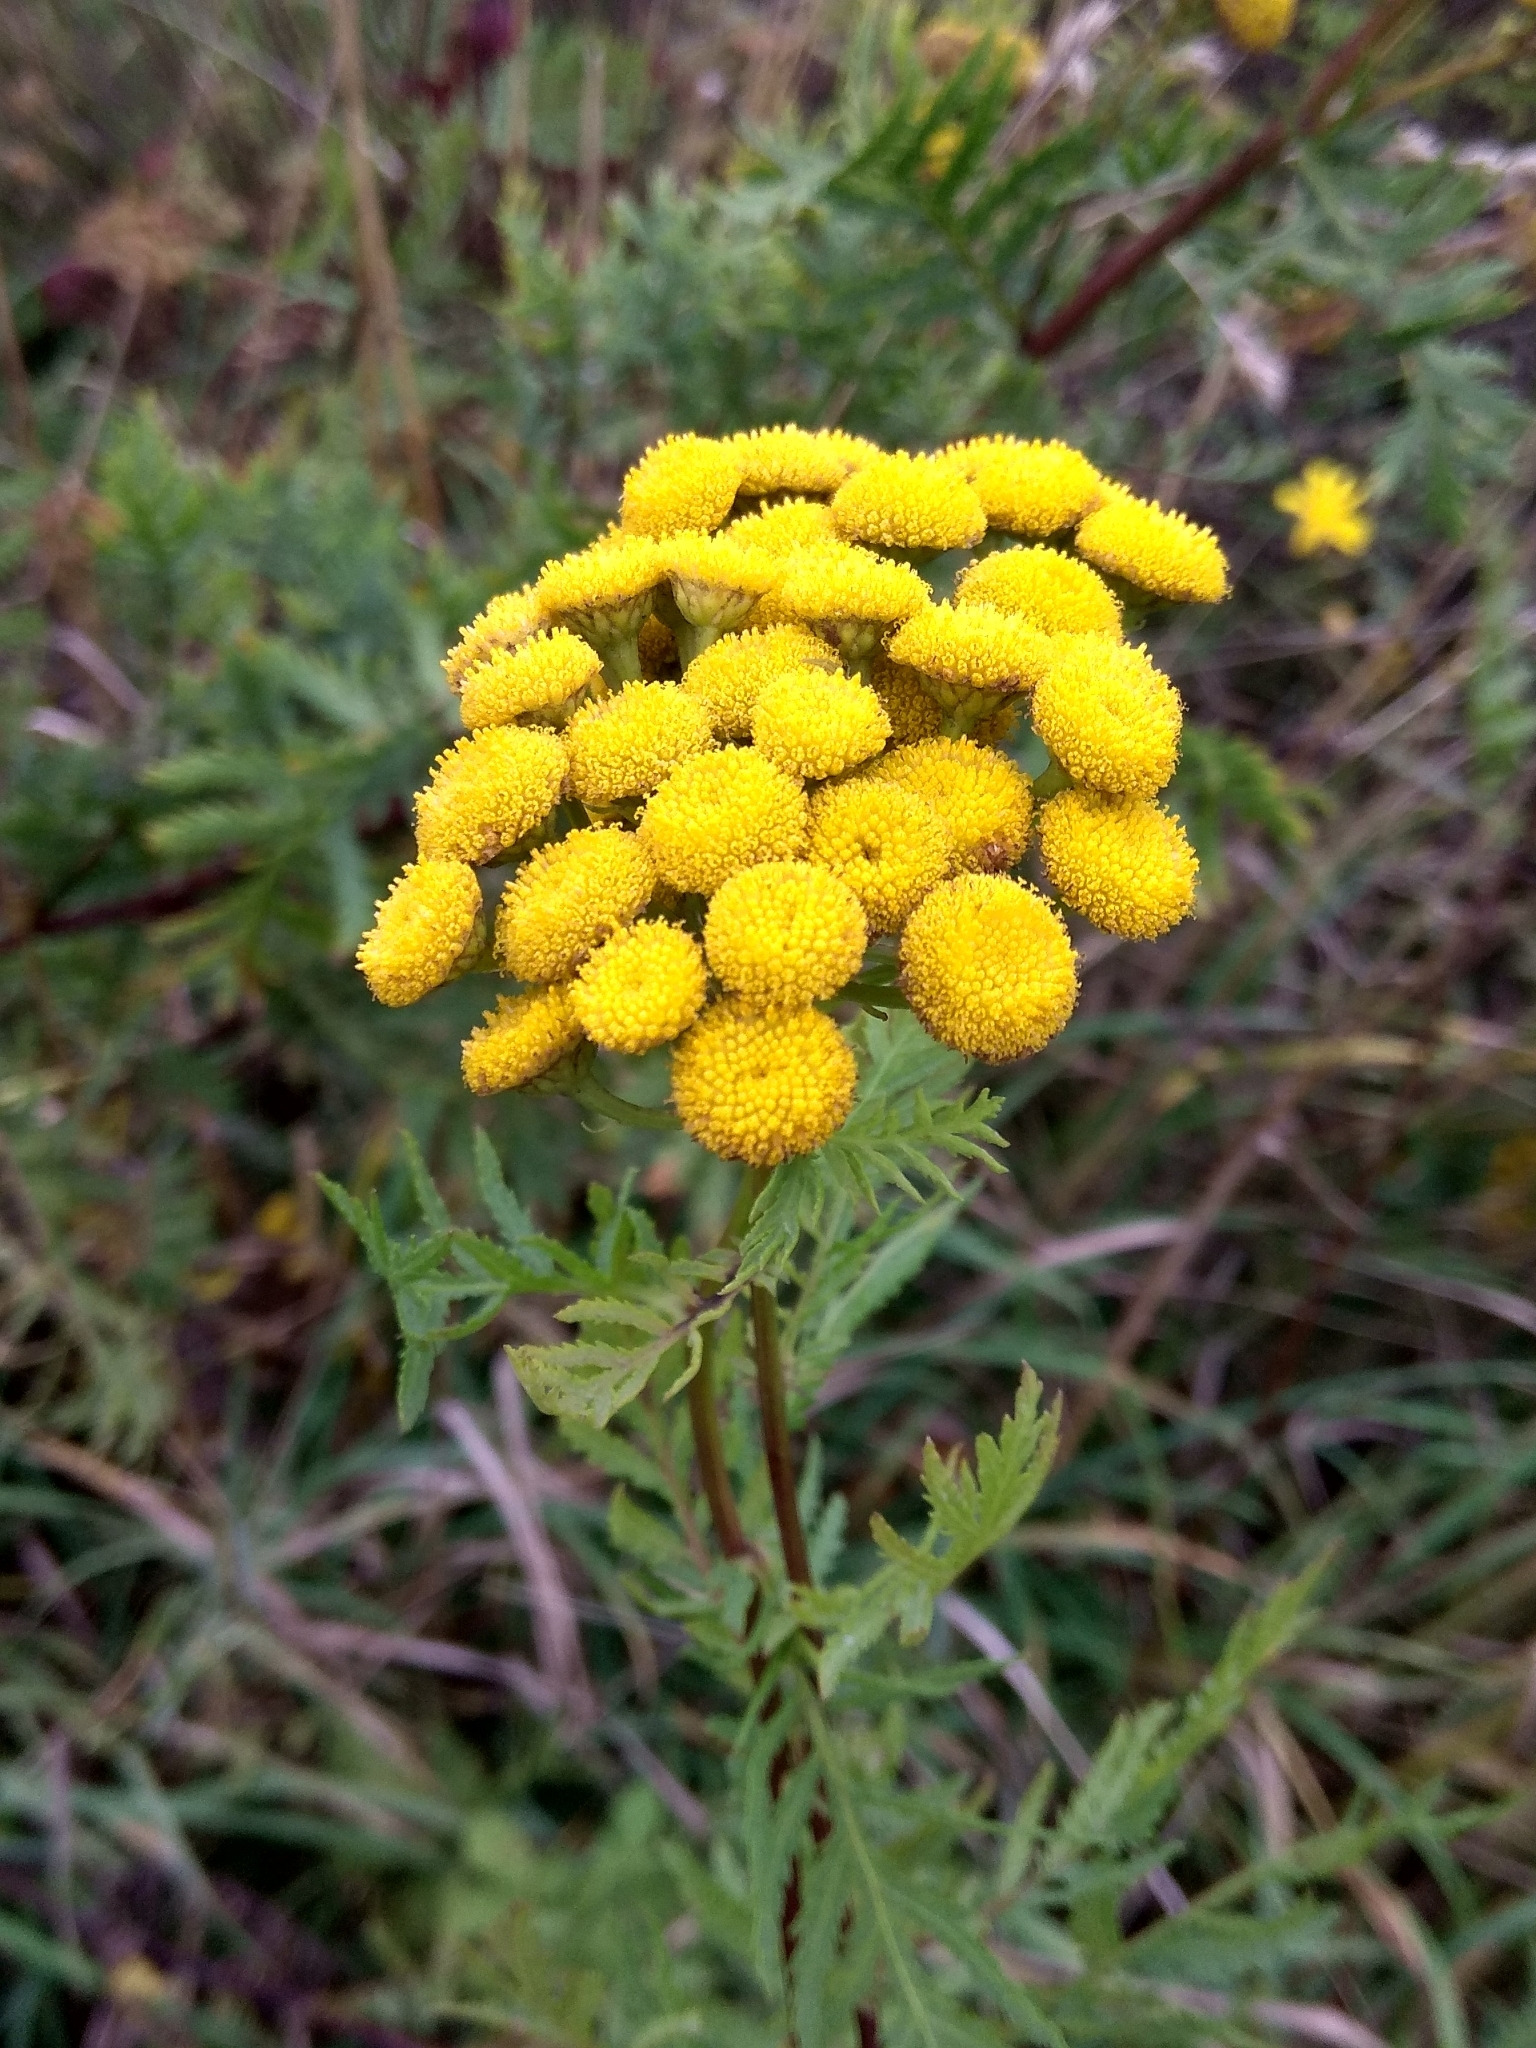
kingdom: Plantae
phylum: Tracheophyta
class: Magnoliopsida
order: Asterales
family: Asteraceae
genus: Tanacetum
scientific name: Tanacetum vulgare
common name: Common tansy
